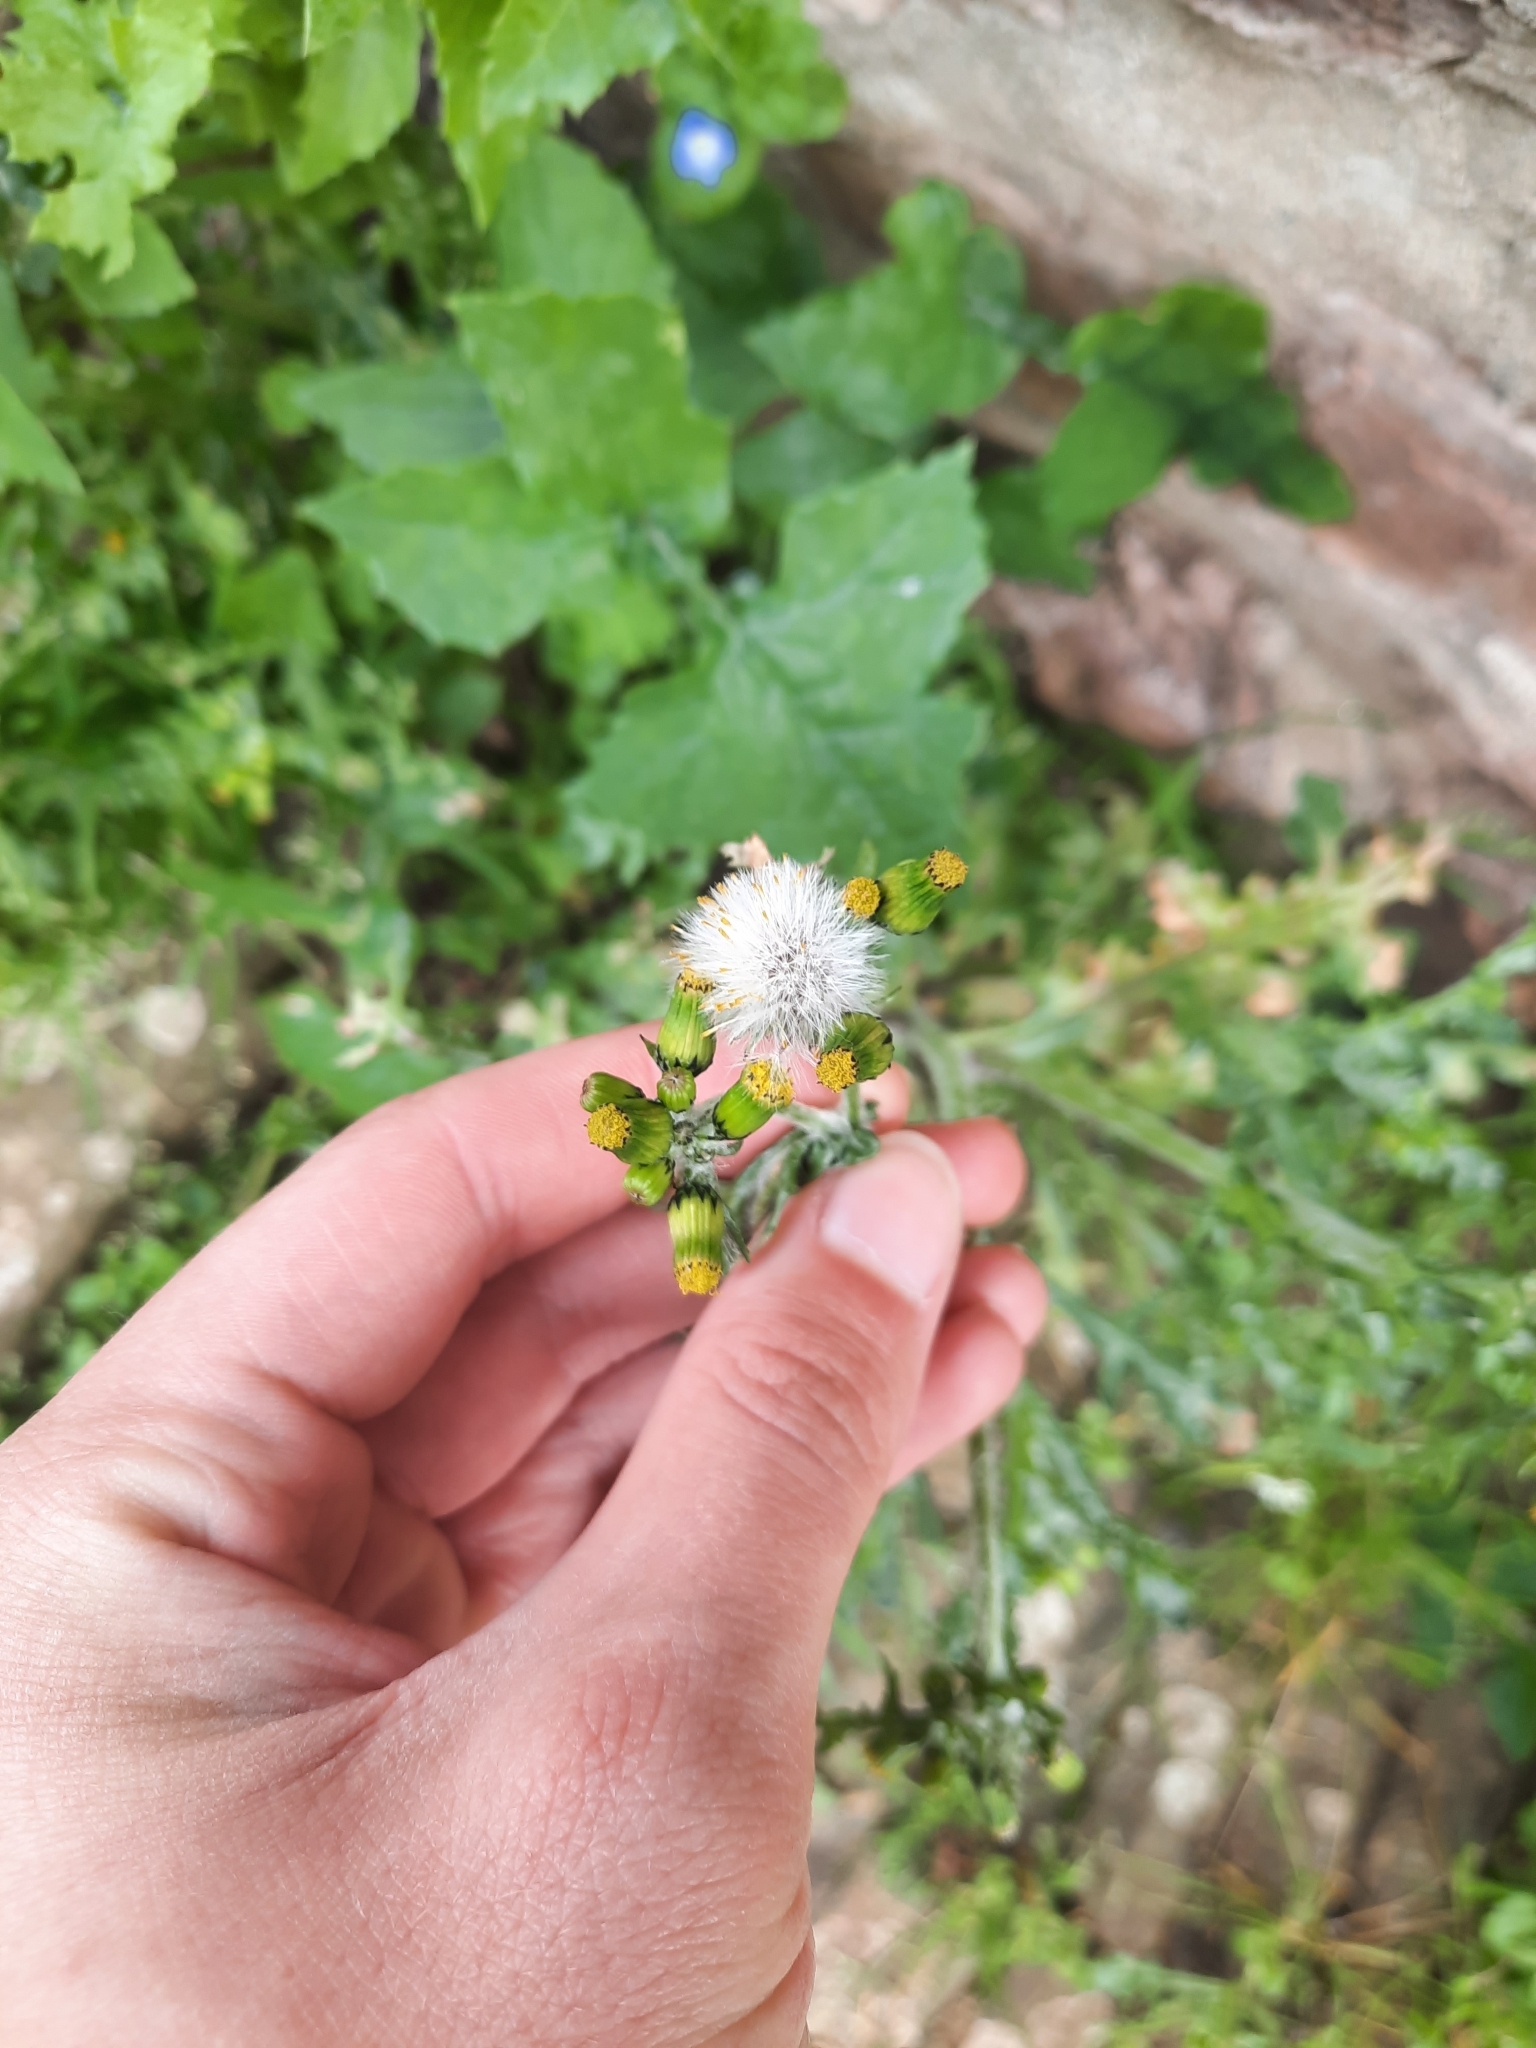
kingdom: Plantae
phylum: Tracheophyta
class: Magnoliopsida
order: Asterales
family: Asteraceae
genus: Senecio
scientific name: Senecio vulgaris
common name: Old-man-in-the-spring
